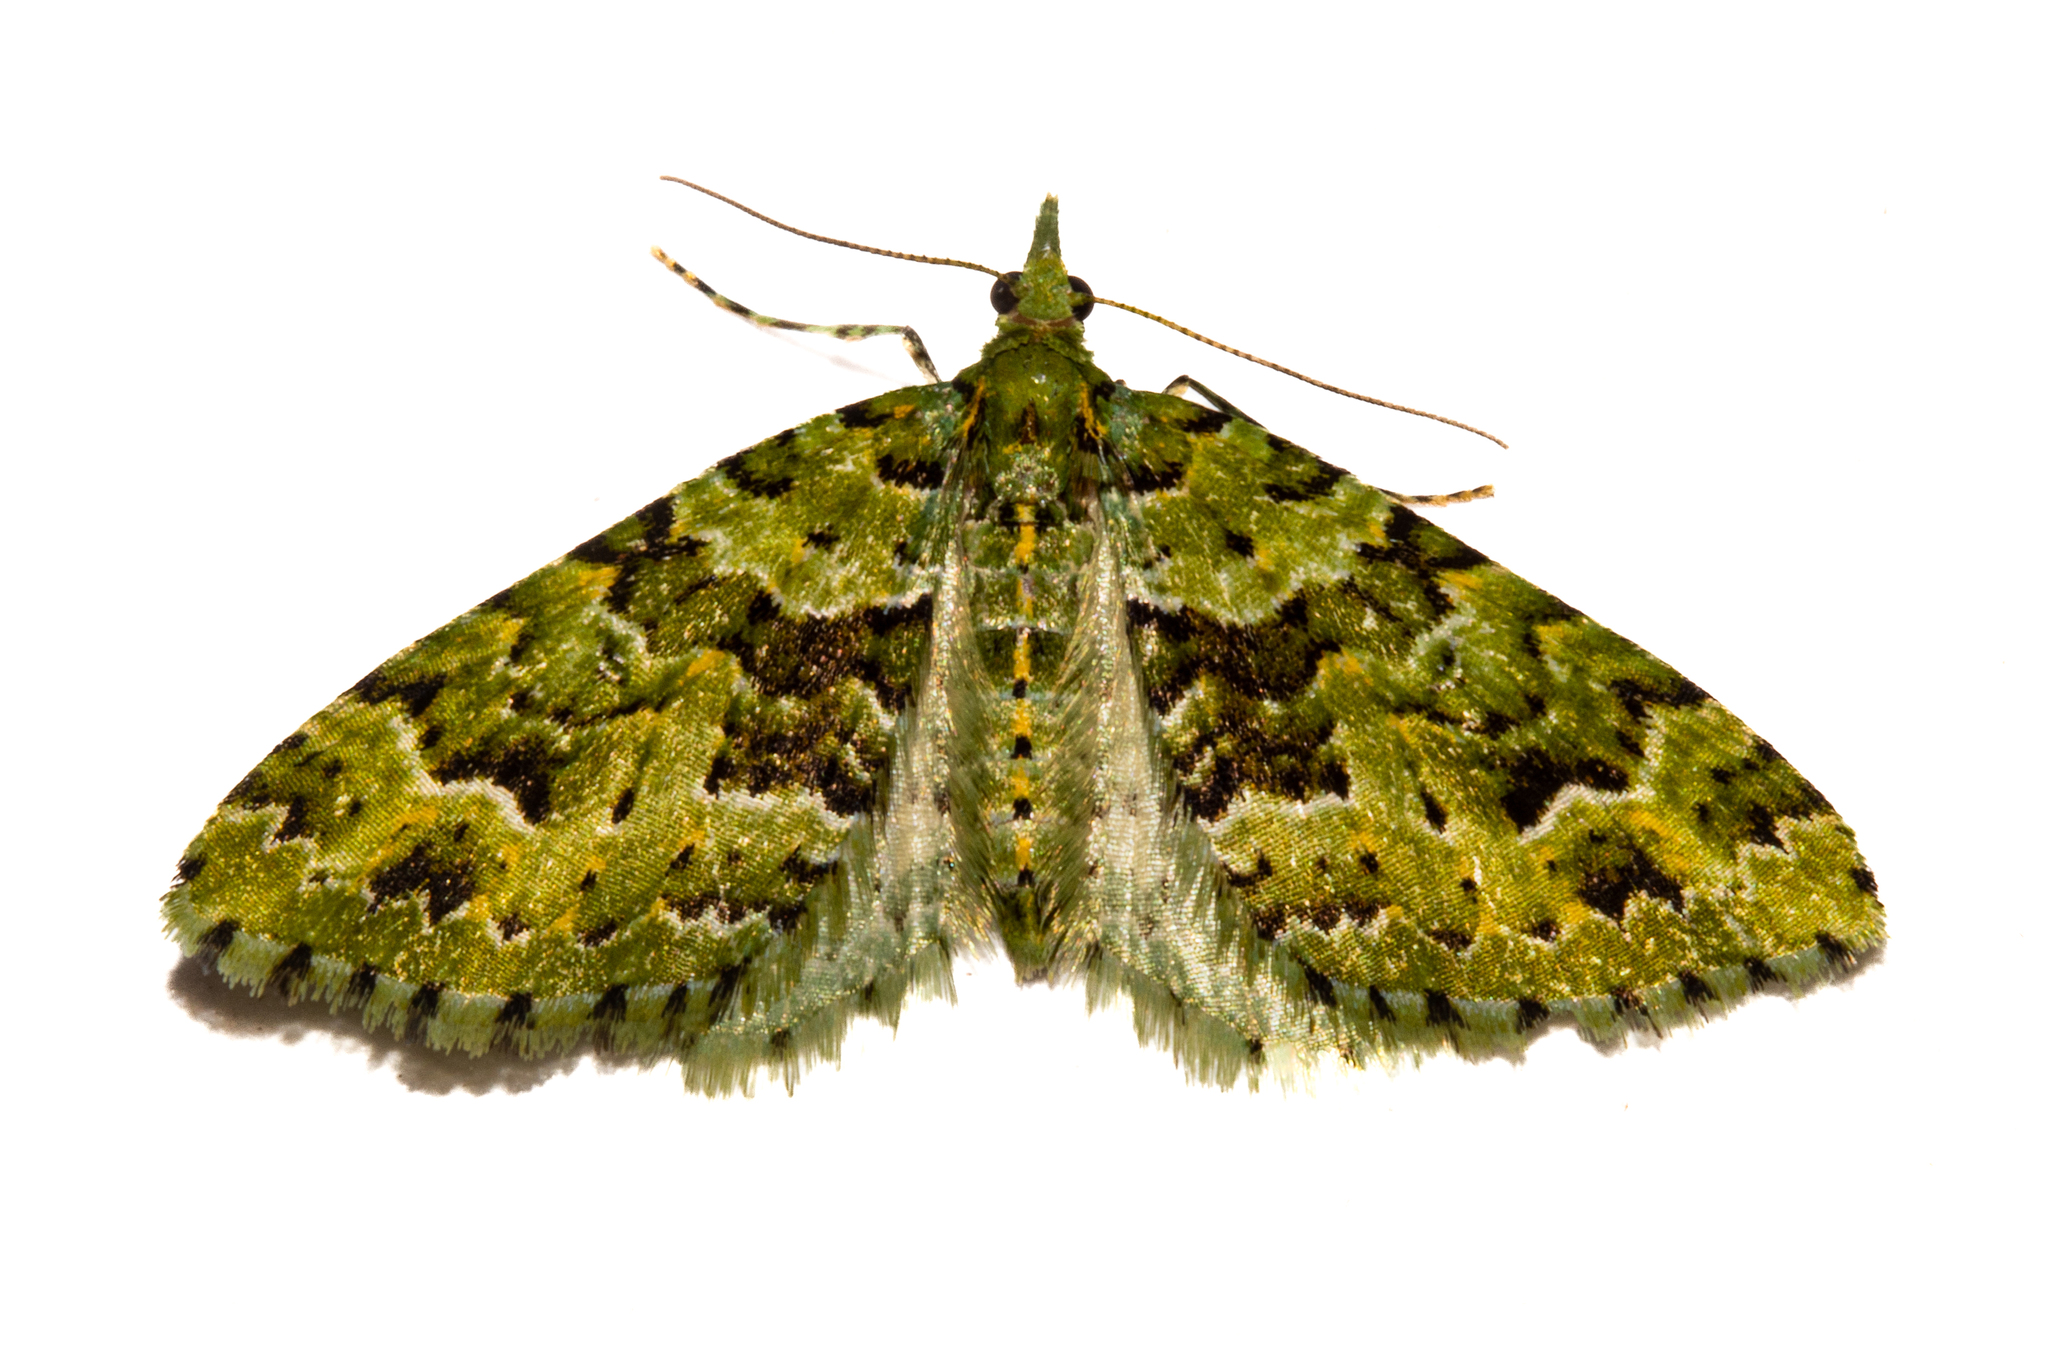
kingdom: Animalia
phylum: Arthropoda
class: Insecta
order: Lepidoptera
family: Geometridae
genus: Pasiphila
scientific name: Pasiphila melochlora
